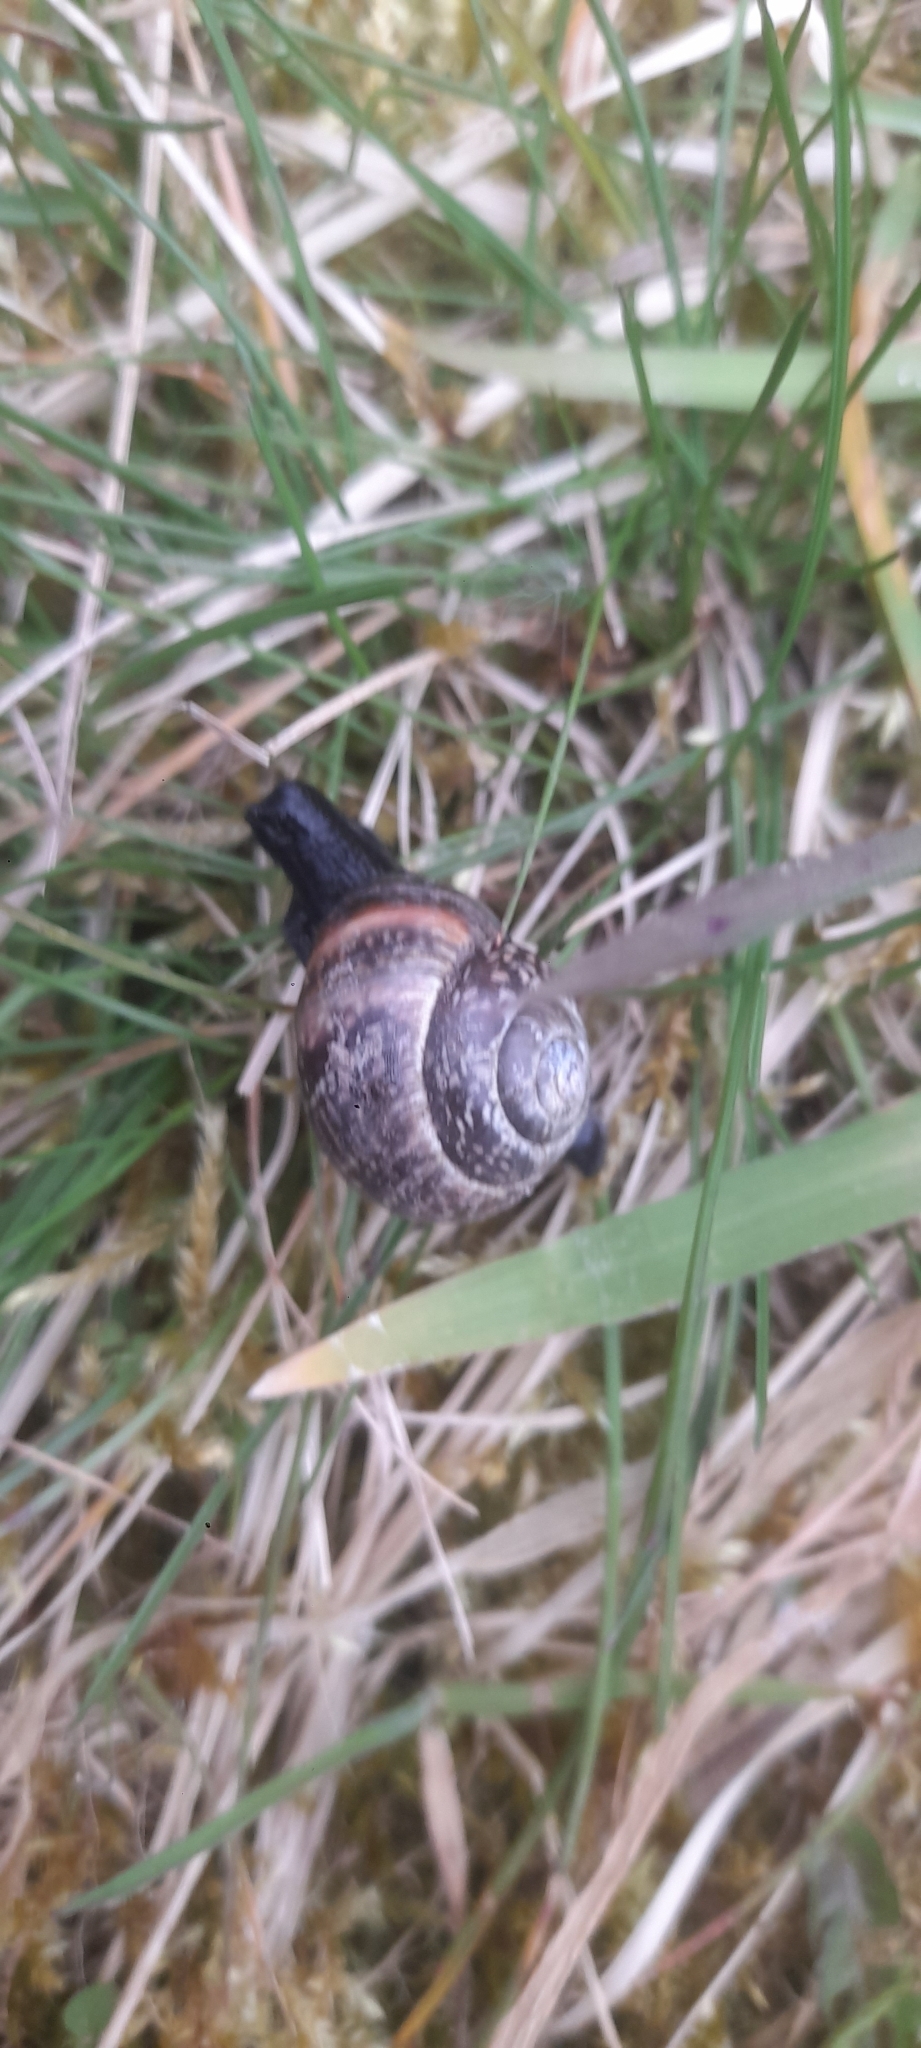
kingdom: Animalia
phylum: Mollusca
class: Gastropoda
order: Stylommatophora
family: Helicidae
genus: Arianta
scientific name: Arianta arbustorum
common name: Copse snail
